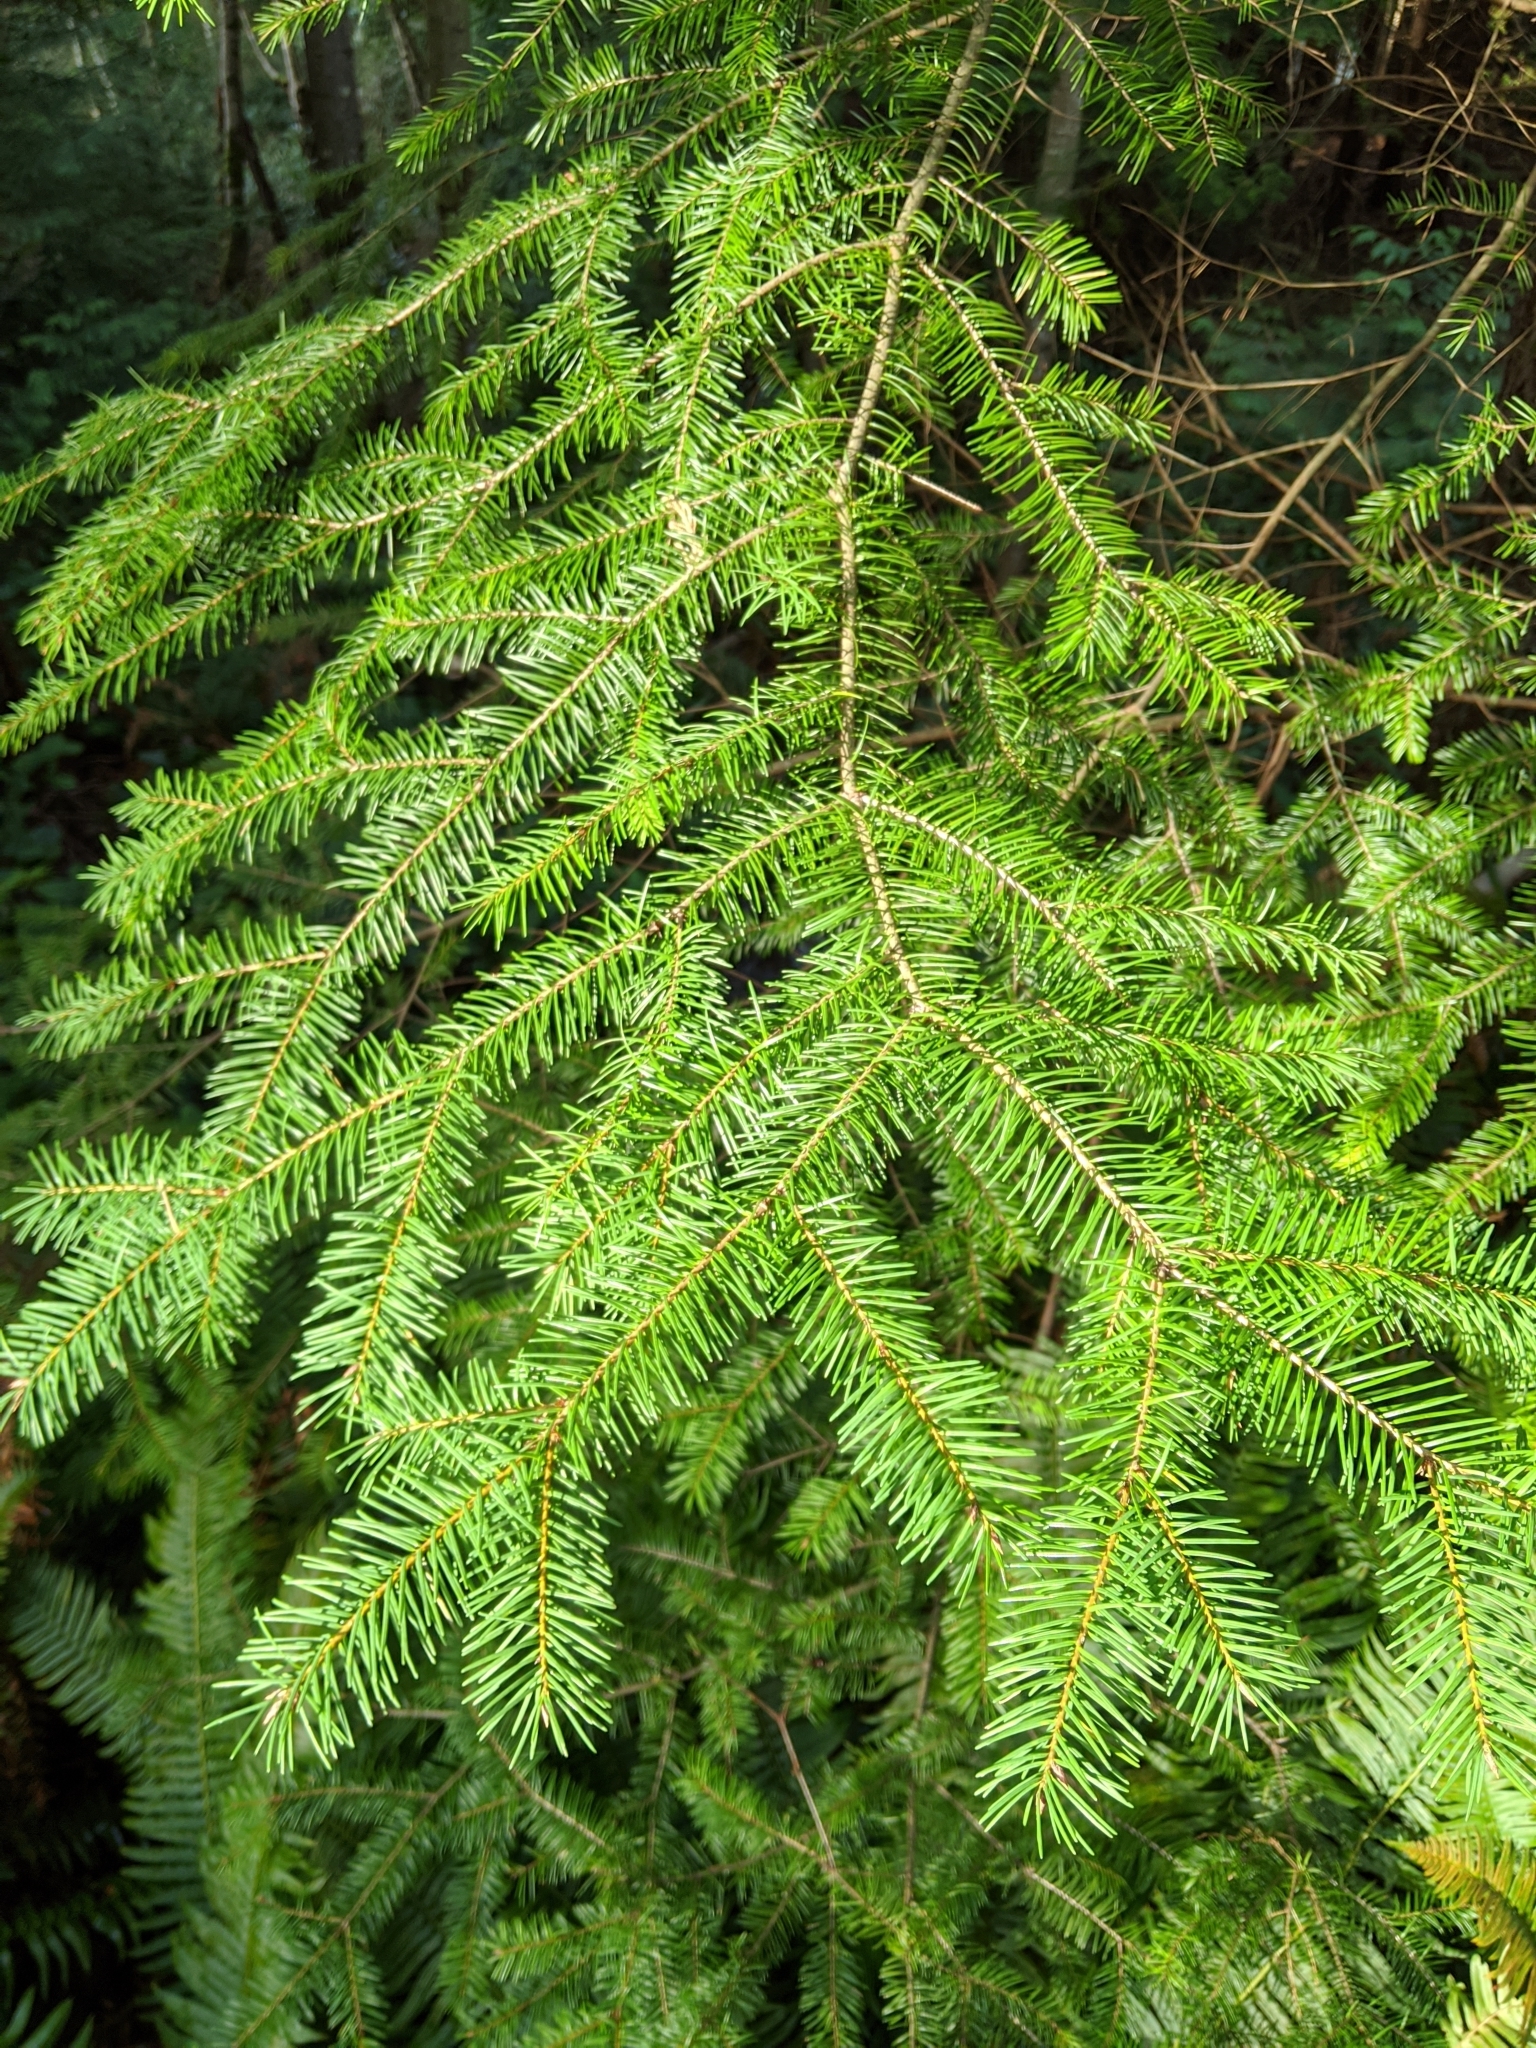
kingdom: Plantae
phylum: Tracheophyta
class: Pinopsida
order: Pinales
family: Pinaceae
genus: Pseudotsuga
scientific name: Pseudotsuga menziesii
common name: Douglas fir
